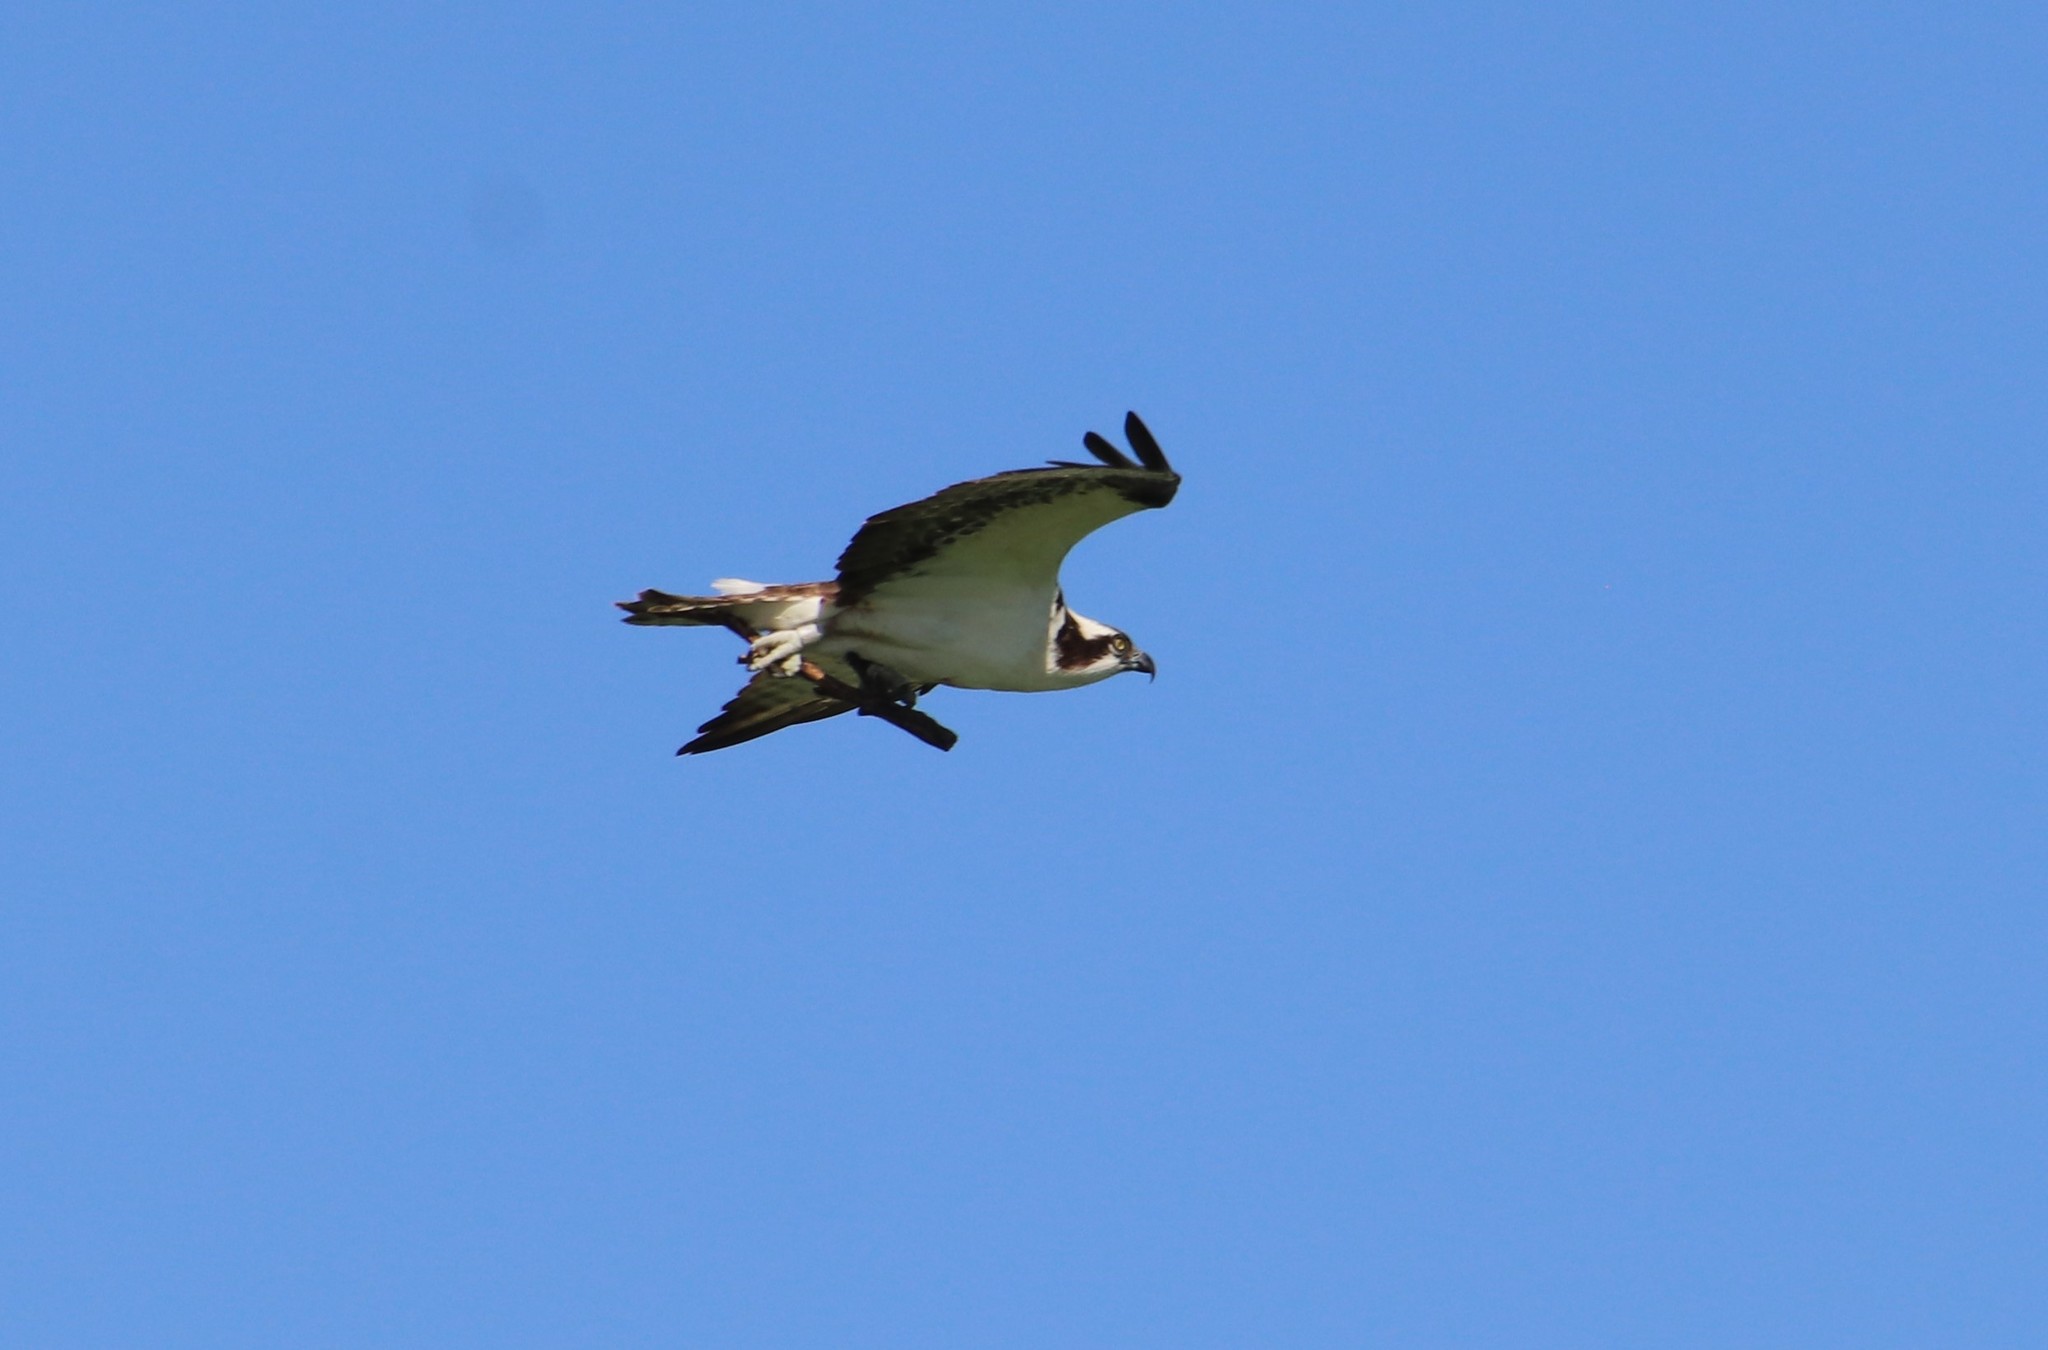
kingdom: Animalia
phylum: Chordata
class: Aves
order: Accipitriformes
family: Pandionidae
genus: Pandion
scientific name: Pandion haliaetus
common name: Osprey
